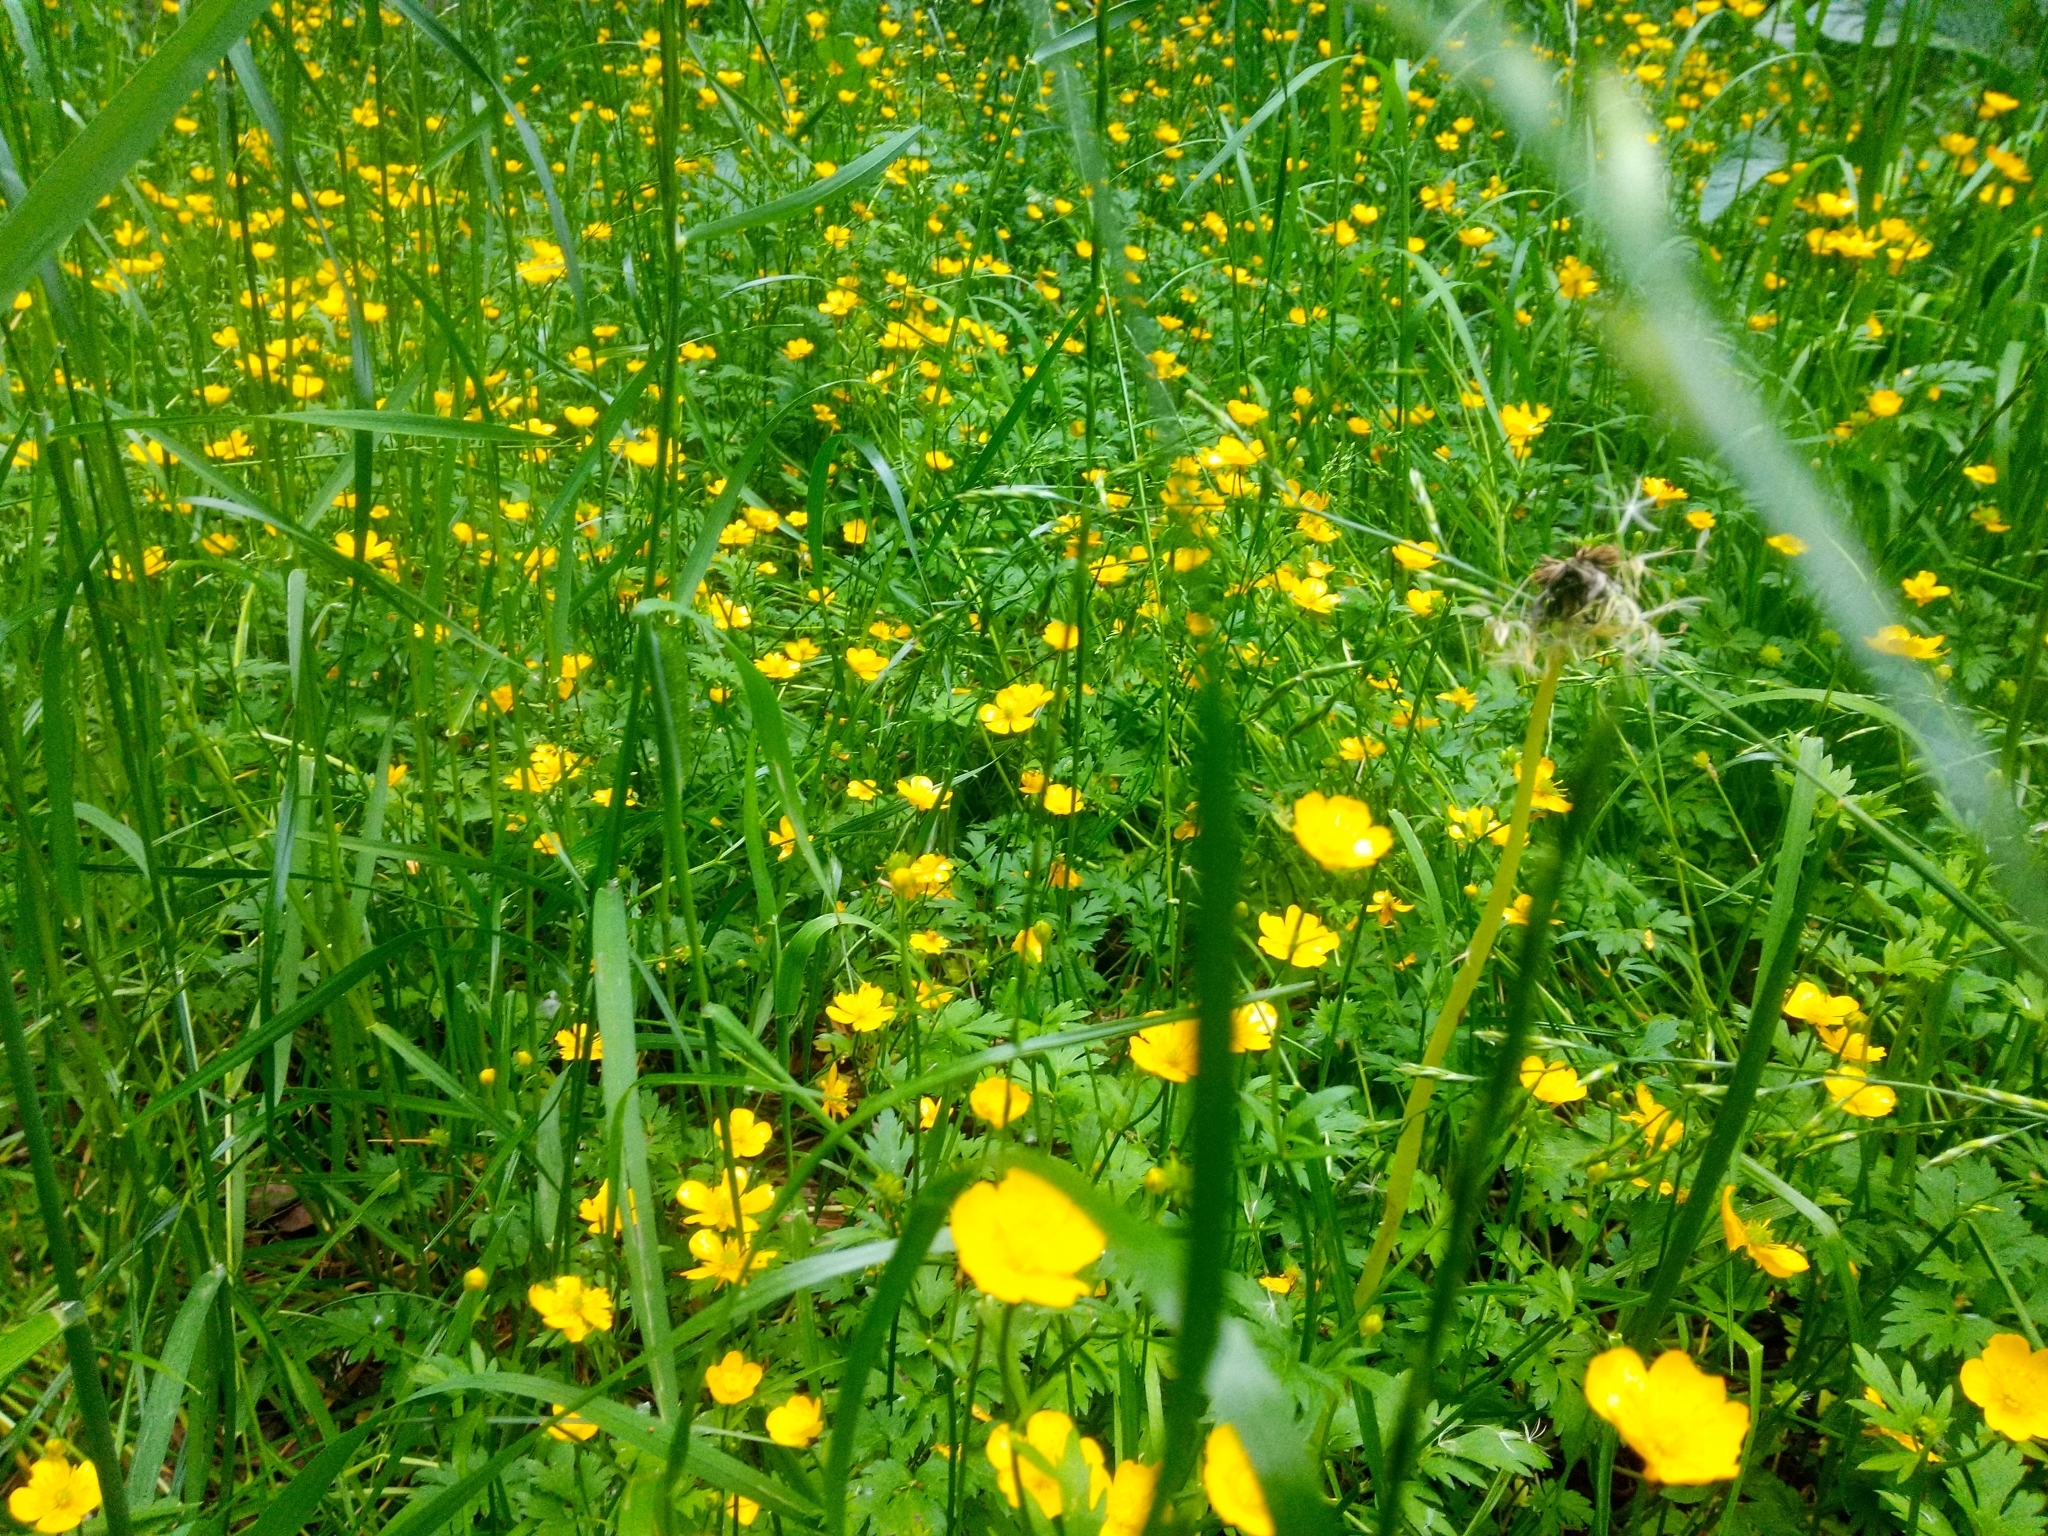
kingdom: Plantae
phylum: Tracheophyta
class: Magnoliopsida
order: Ranunculales
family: Ranunculaceae
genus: Ranunculus
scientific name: Ranunculus repens
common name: Creeping buttercup
